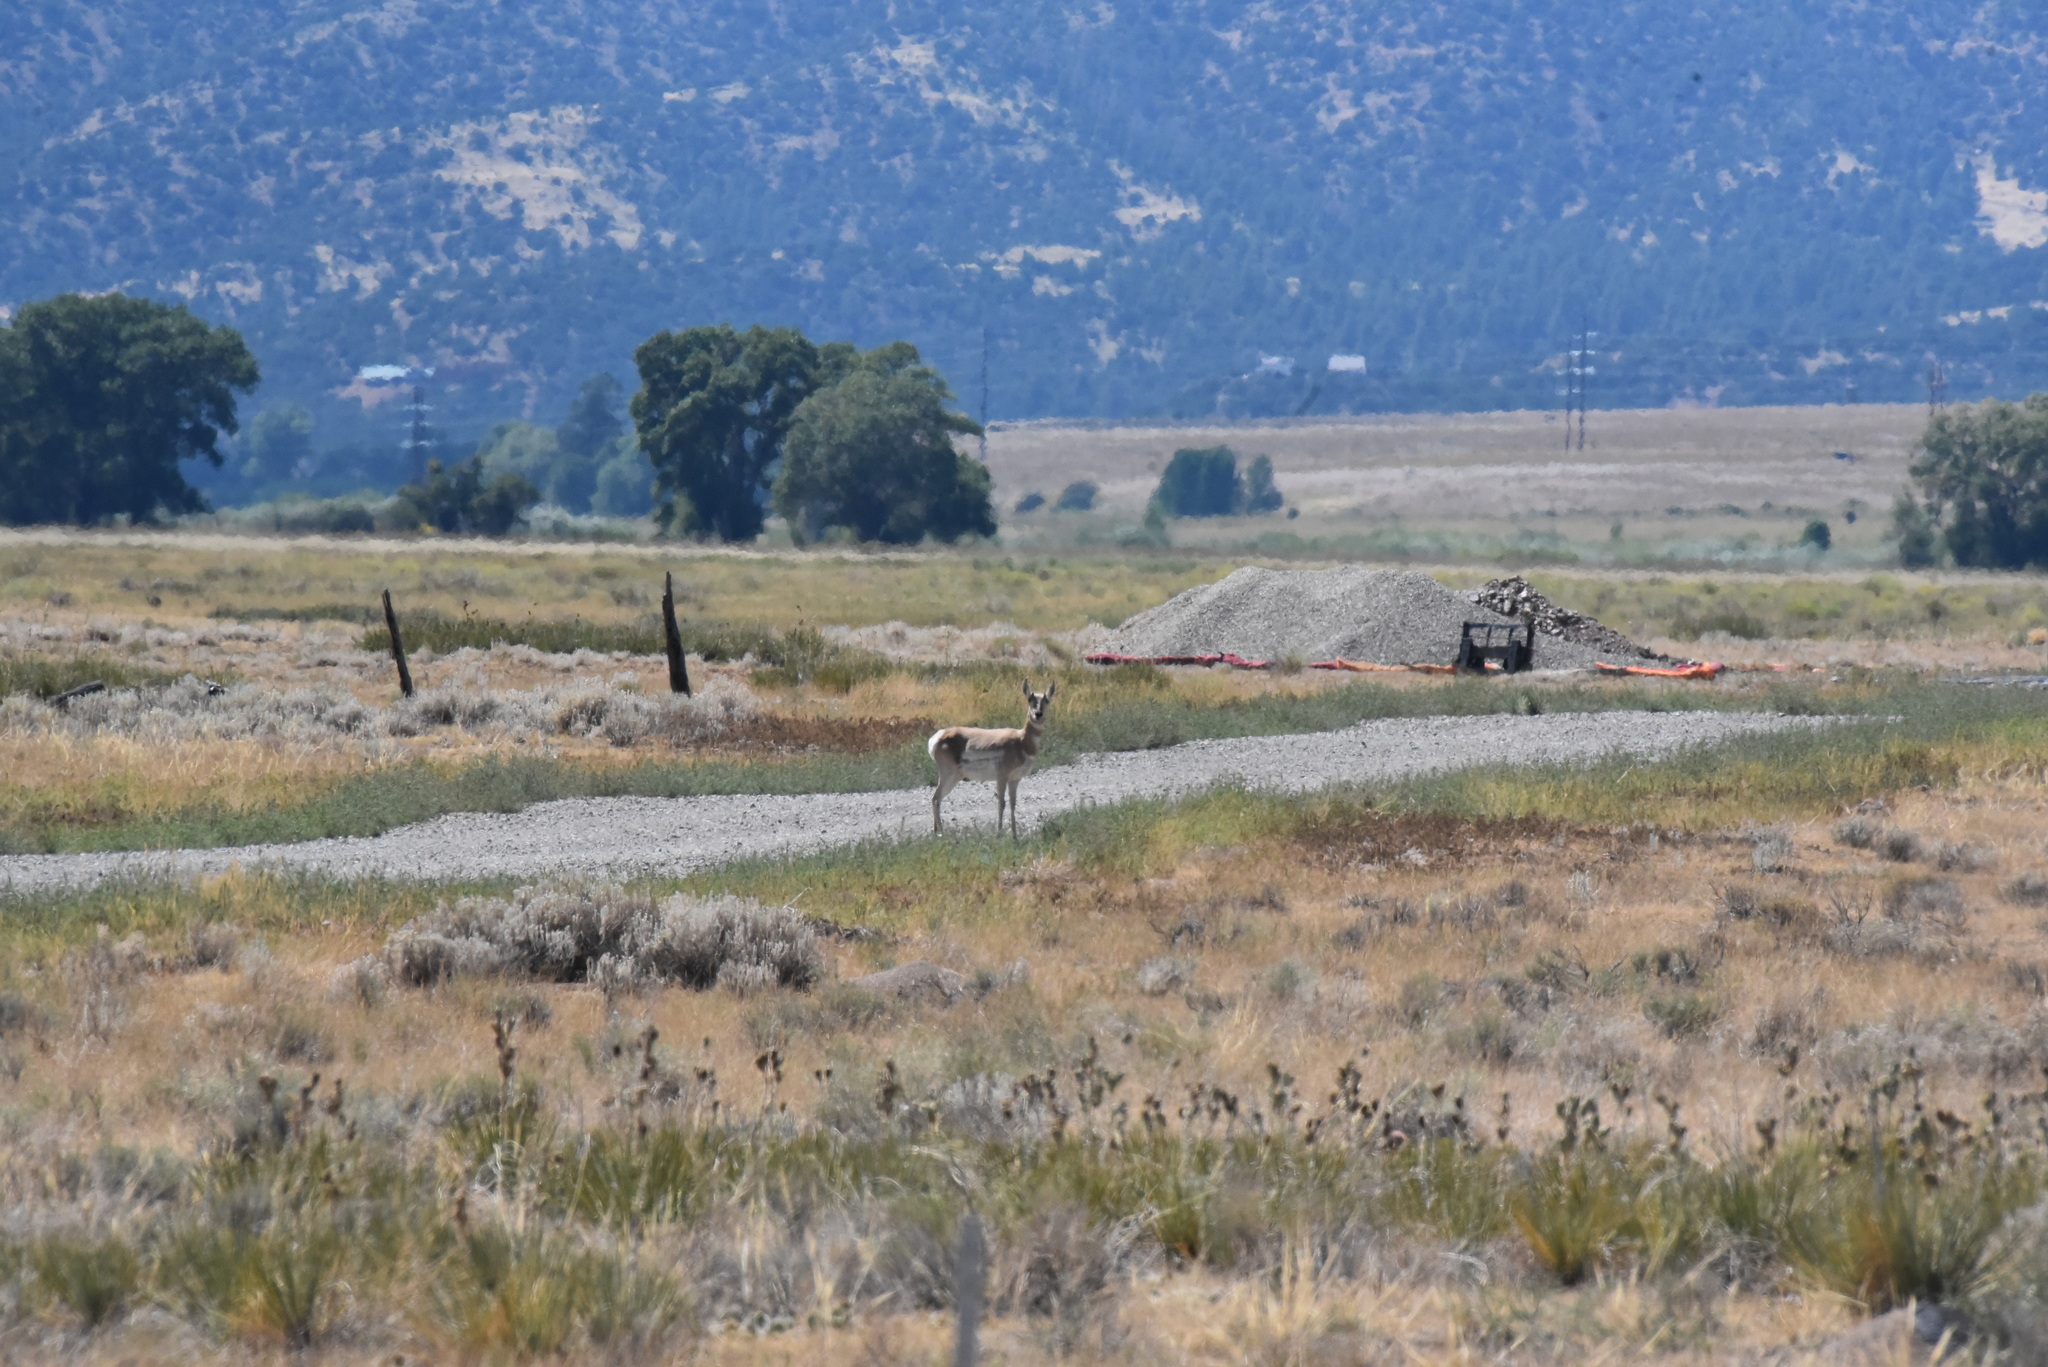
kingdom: Animalia
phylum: Chordata
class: Mammalia
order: Artiodactyla
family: Antilocapridae
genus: Antilocapra
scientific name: Antilocapra americana
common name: Pronghorn
